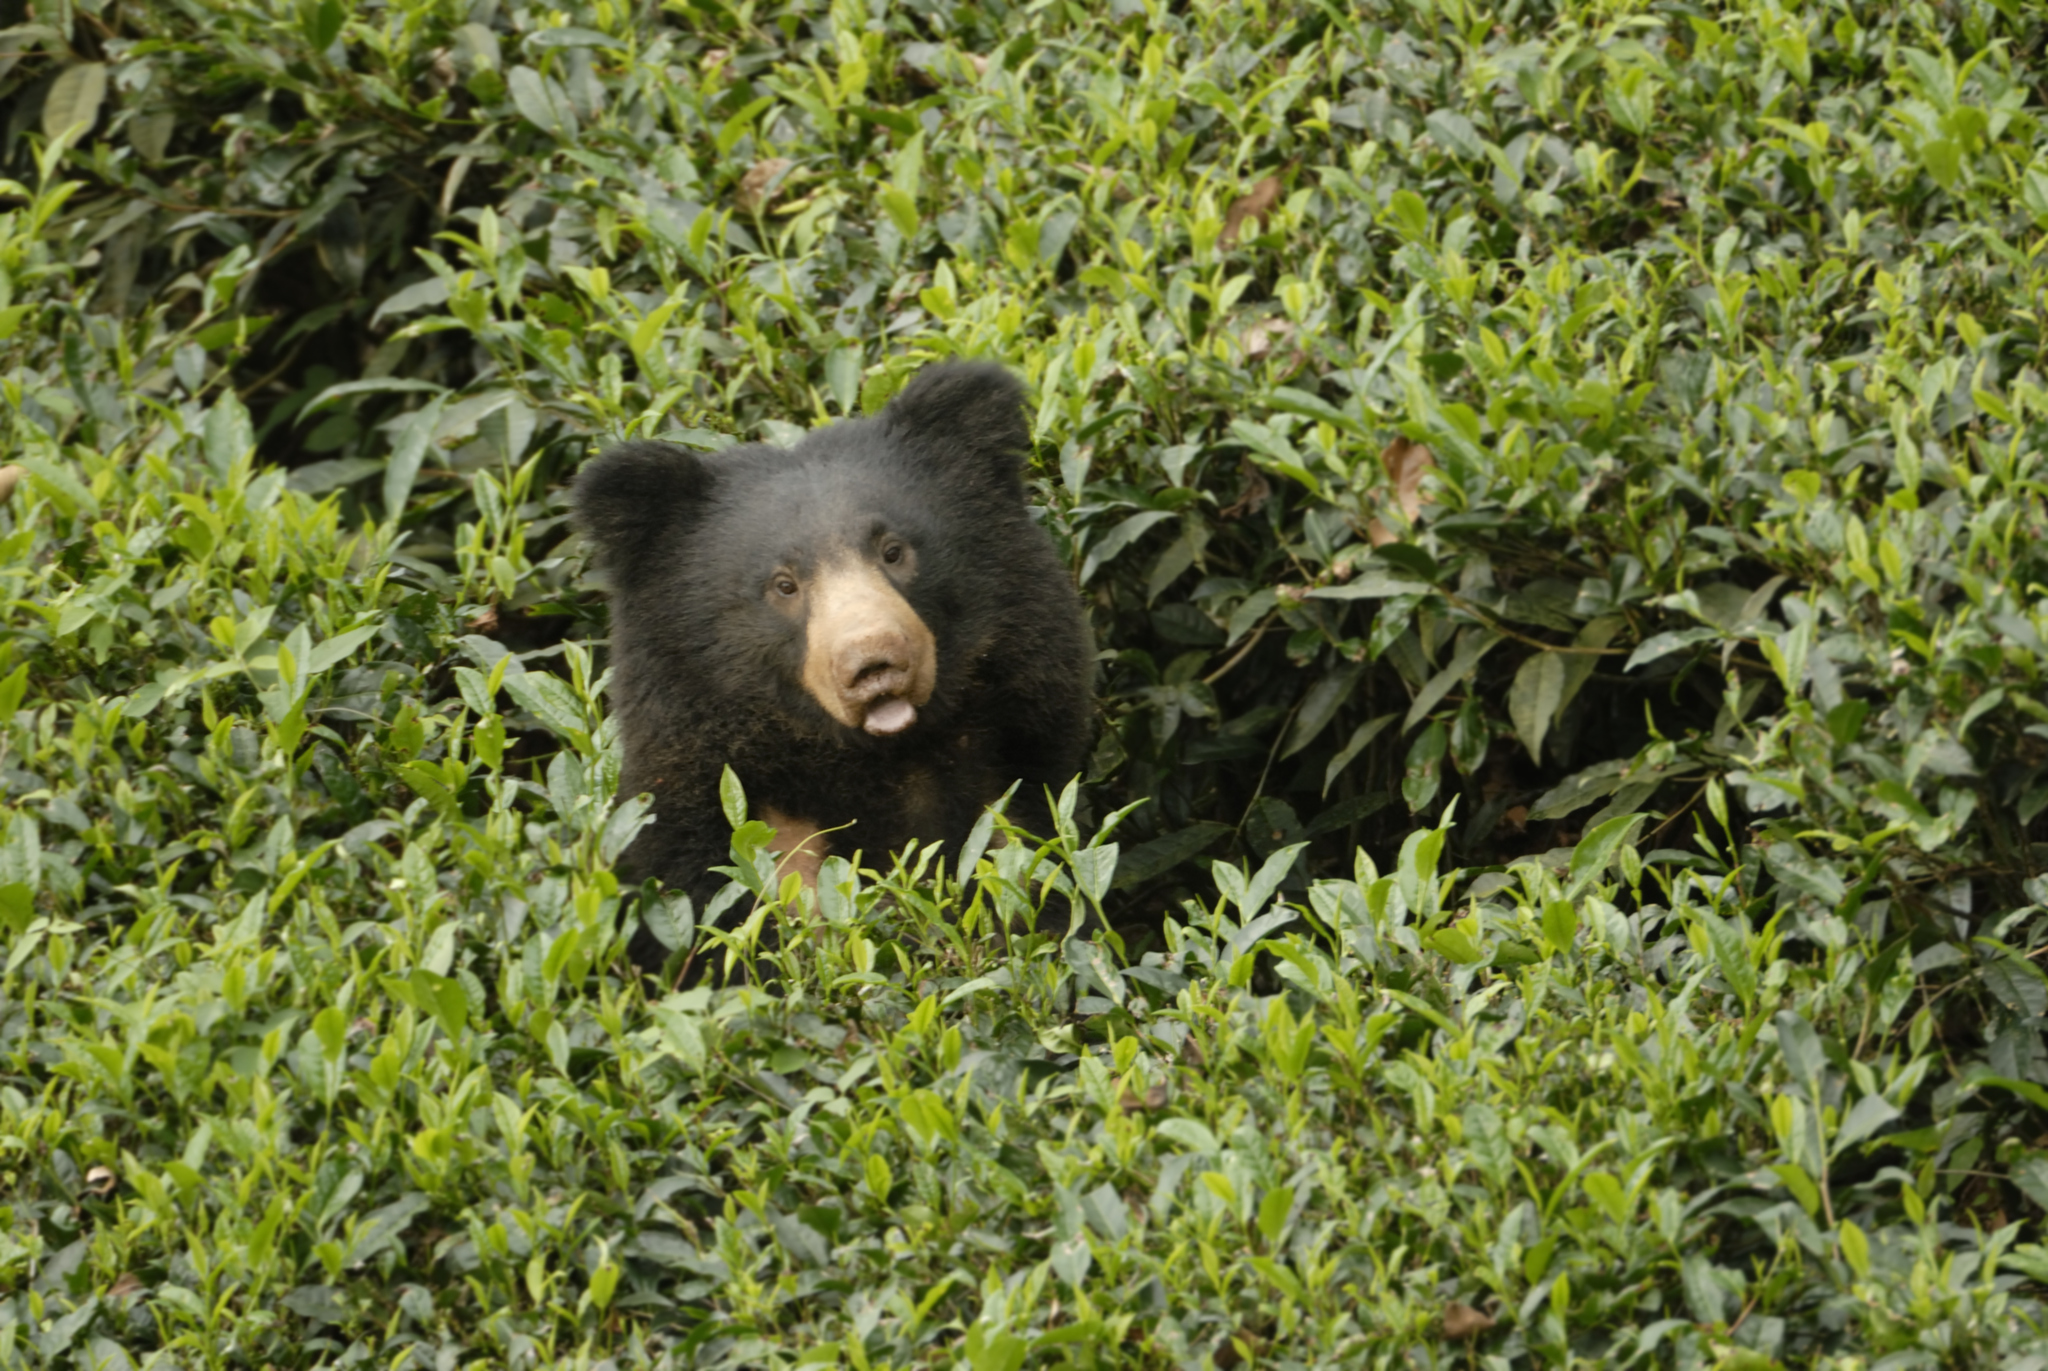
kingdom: Animalia
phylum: Chordata
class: Mammalia
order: Carnivora
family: Ursidae
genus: Melursus
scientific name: Melursus ursinus
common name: Sloth bear
